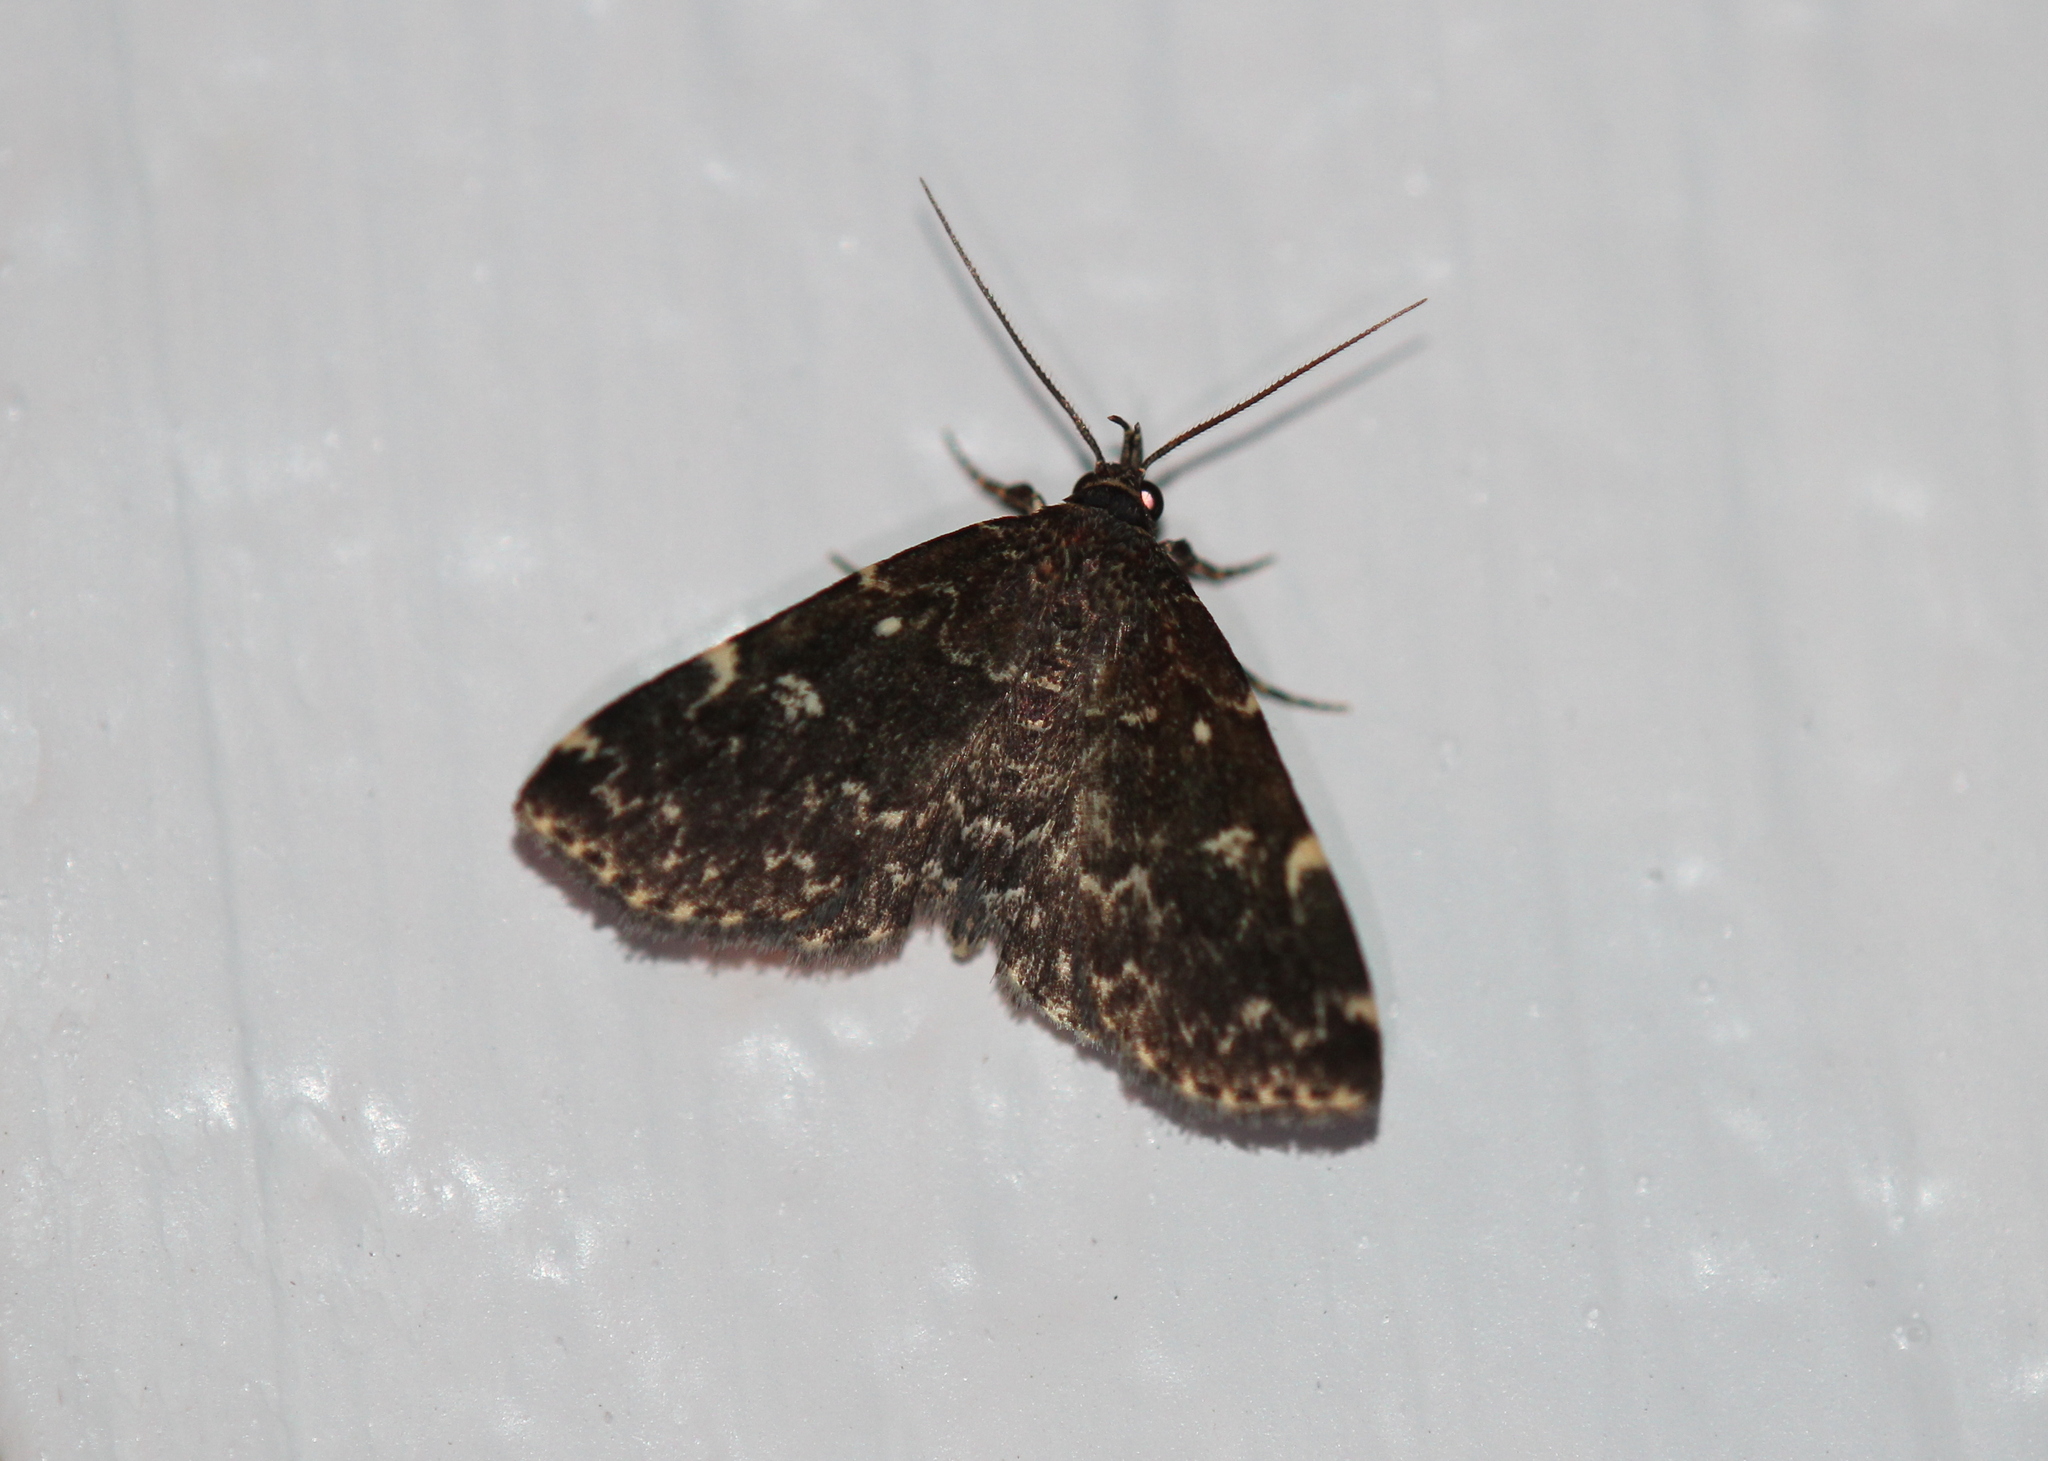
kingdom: Animalia
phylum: Arthropoda
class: Insecta
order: Lepidoptera
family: Erebidae
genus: Idia
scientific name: Idia scobialis
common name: Smoky idia moth
